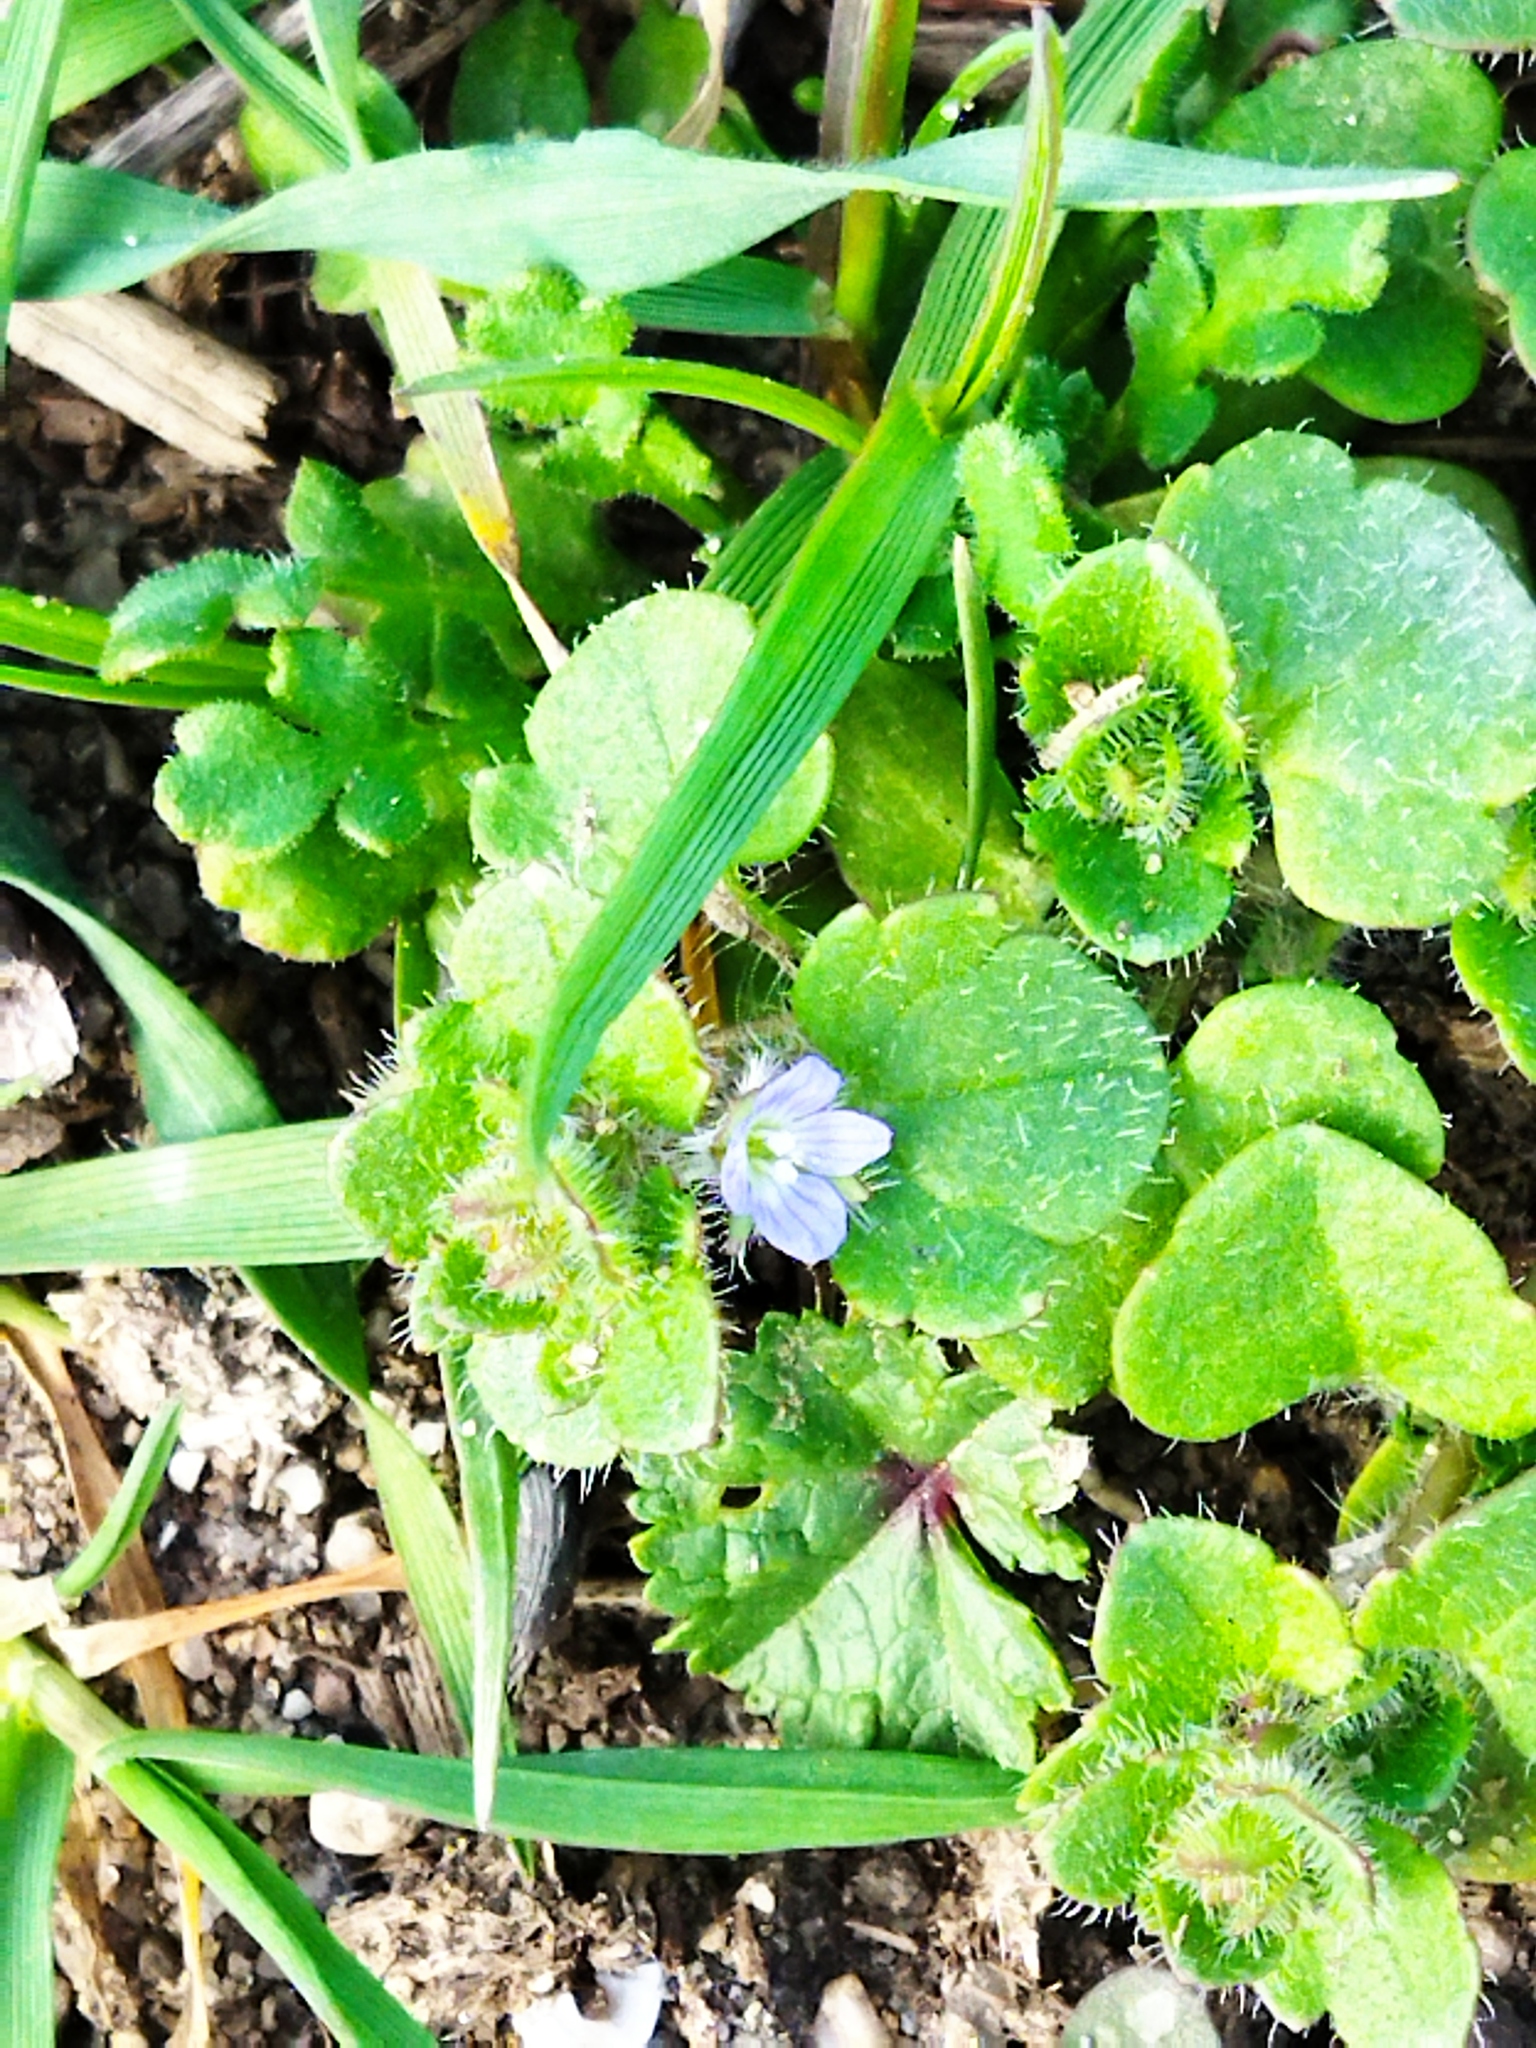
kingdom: Plantae
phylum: Tracheophyta
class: Magnoliopsida
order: Lamiales
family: Plantaginaceae
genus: Veronica
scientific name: Veronica hederifolia
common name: Ivy-leaved speedwell
